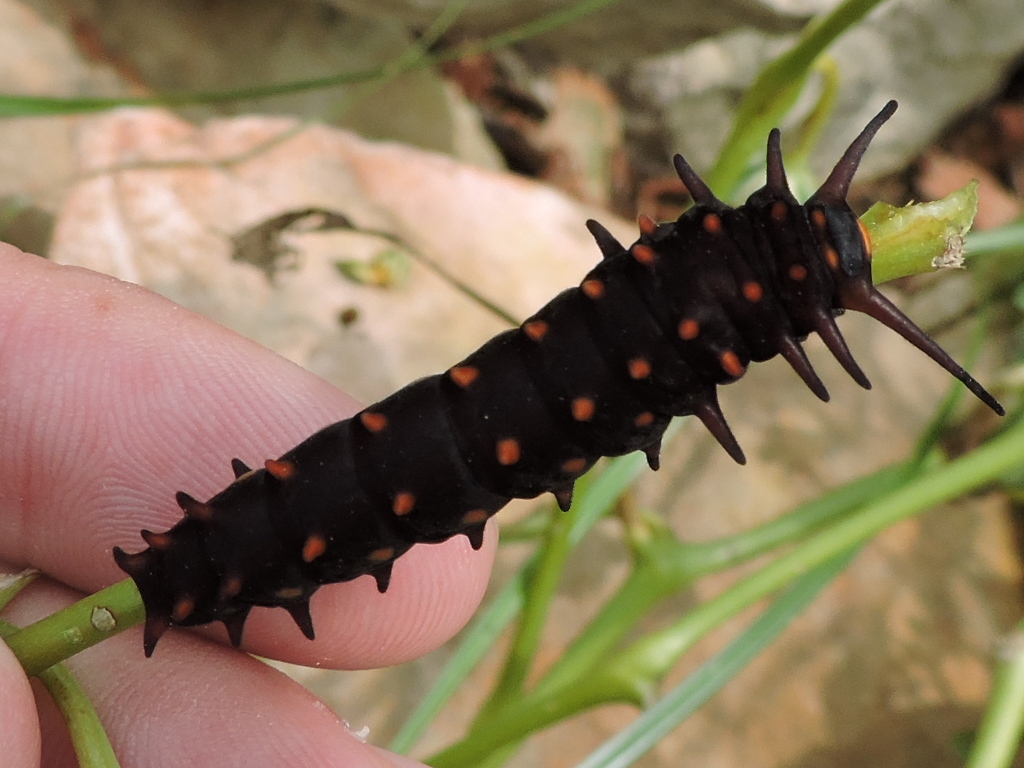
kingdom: Animalia
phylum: Arthropoda
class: Insecta
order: Lepidoptera
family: Papilionidae
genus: Battus
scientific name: Battus philenor
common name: Pipevine swallowtail
